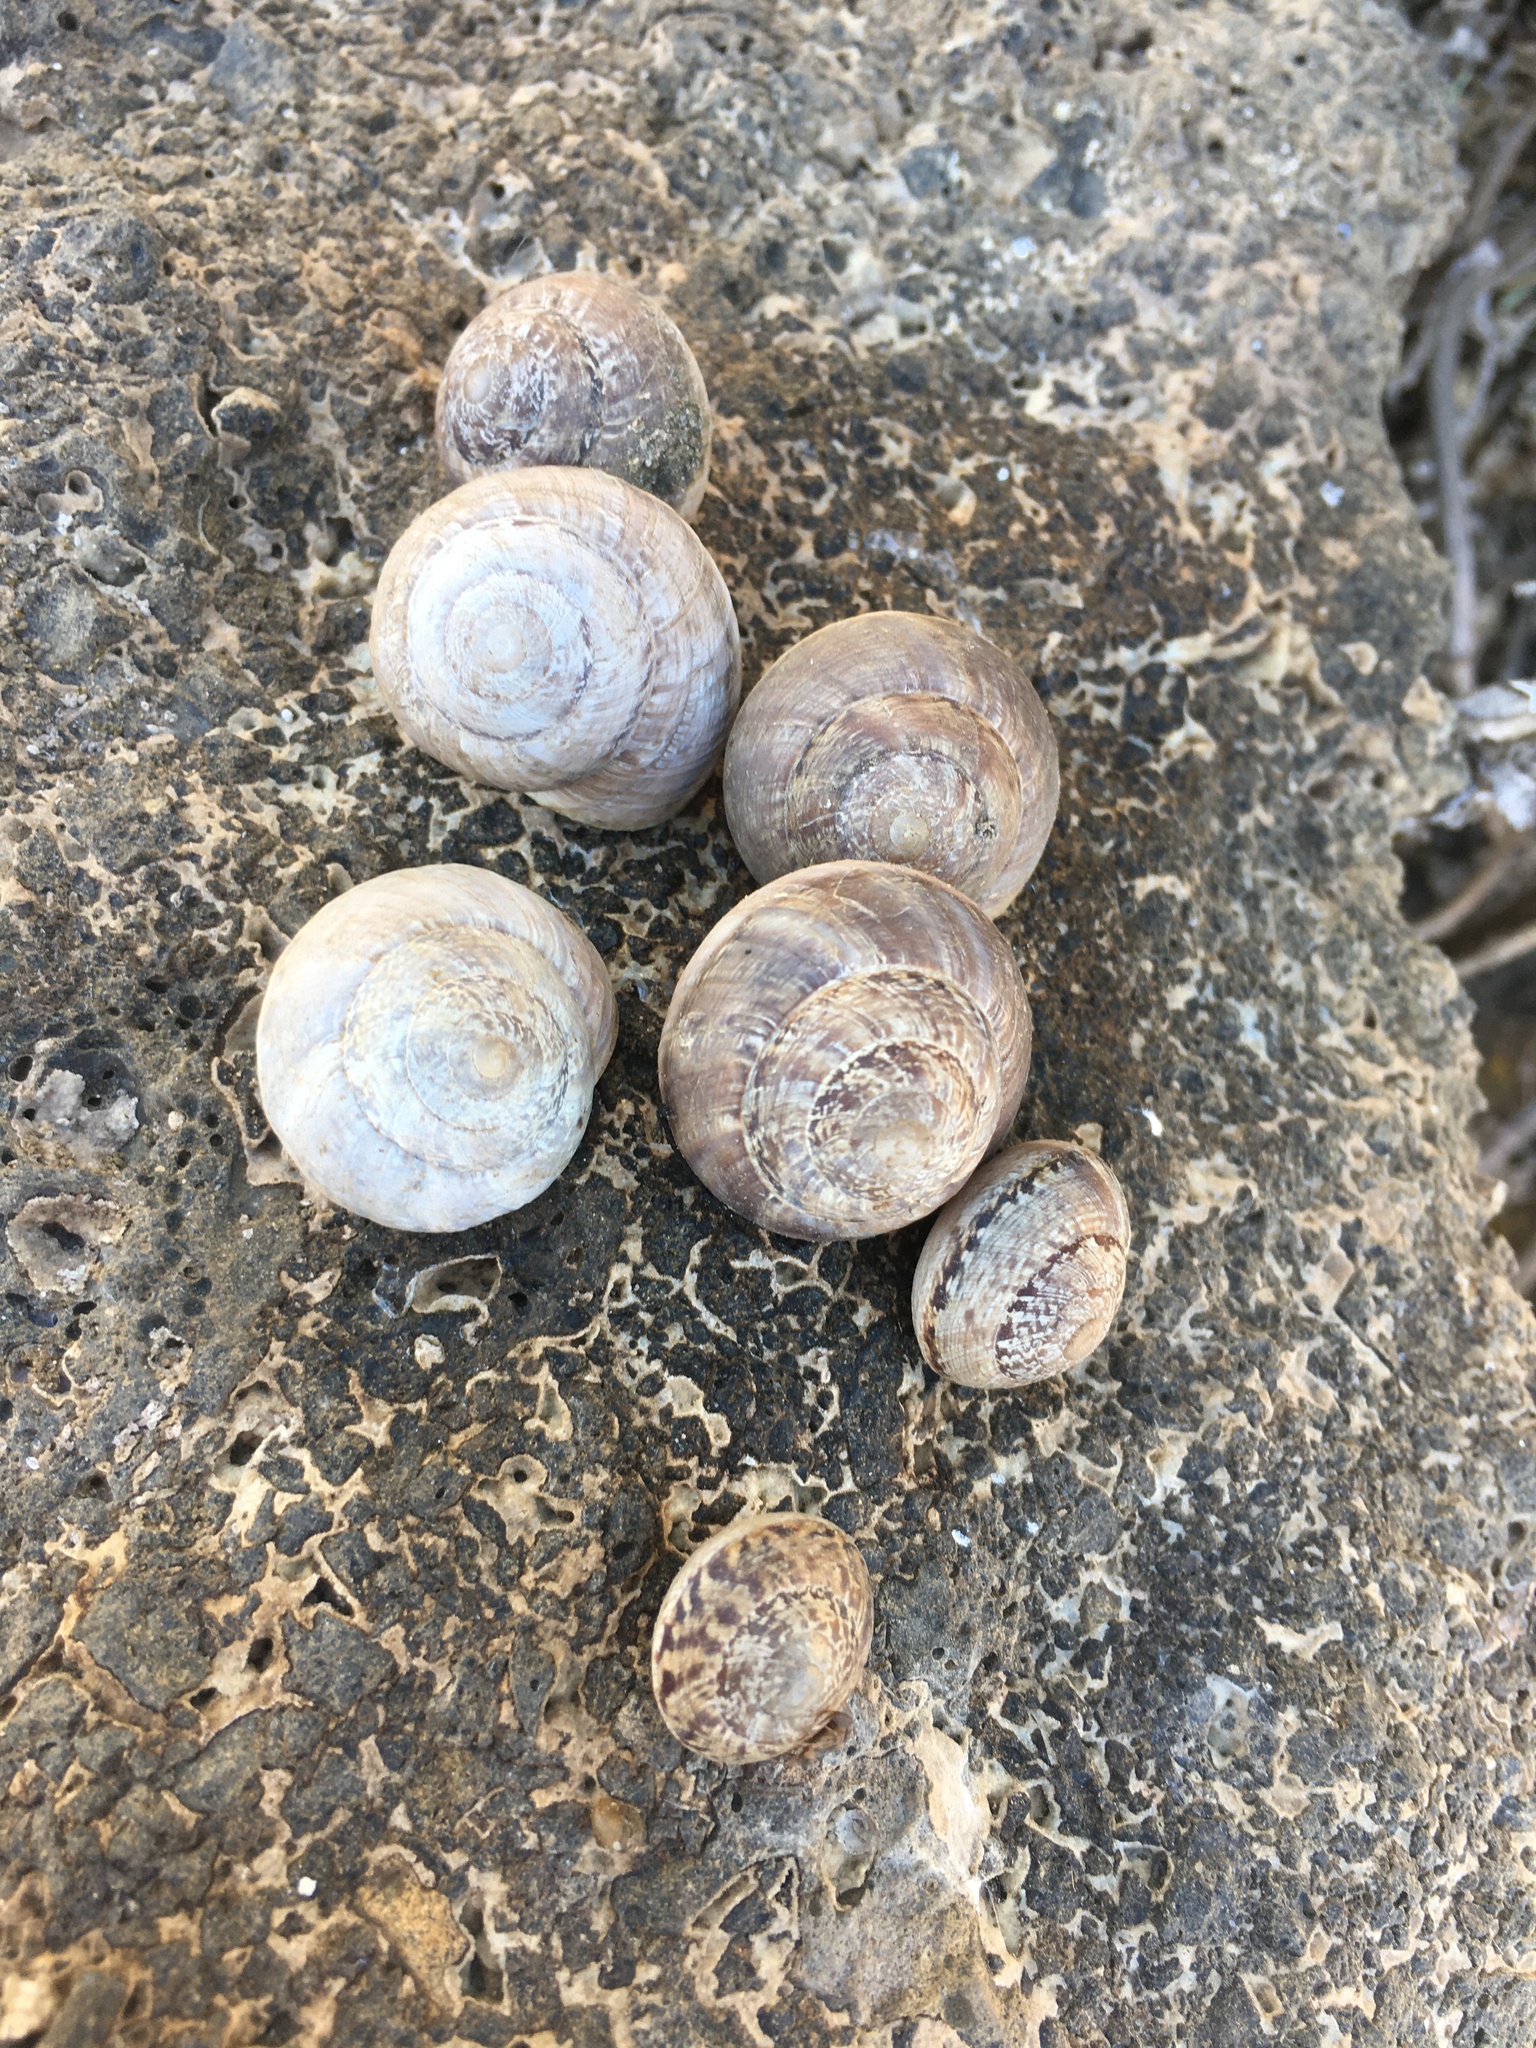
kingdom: Animalia
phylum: Mollusca
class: Gastropoda
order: Stylommatophora
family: Xanthonychidae
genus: Xerarionta
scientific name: Xerarionta tryoni
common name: Bicolor cactus snail
